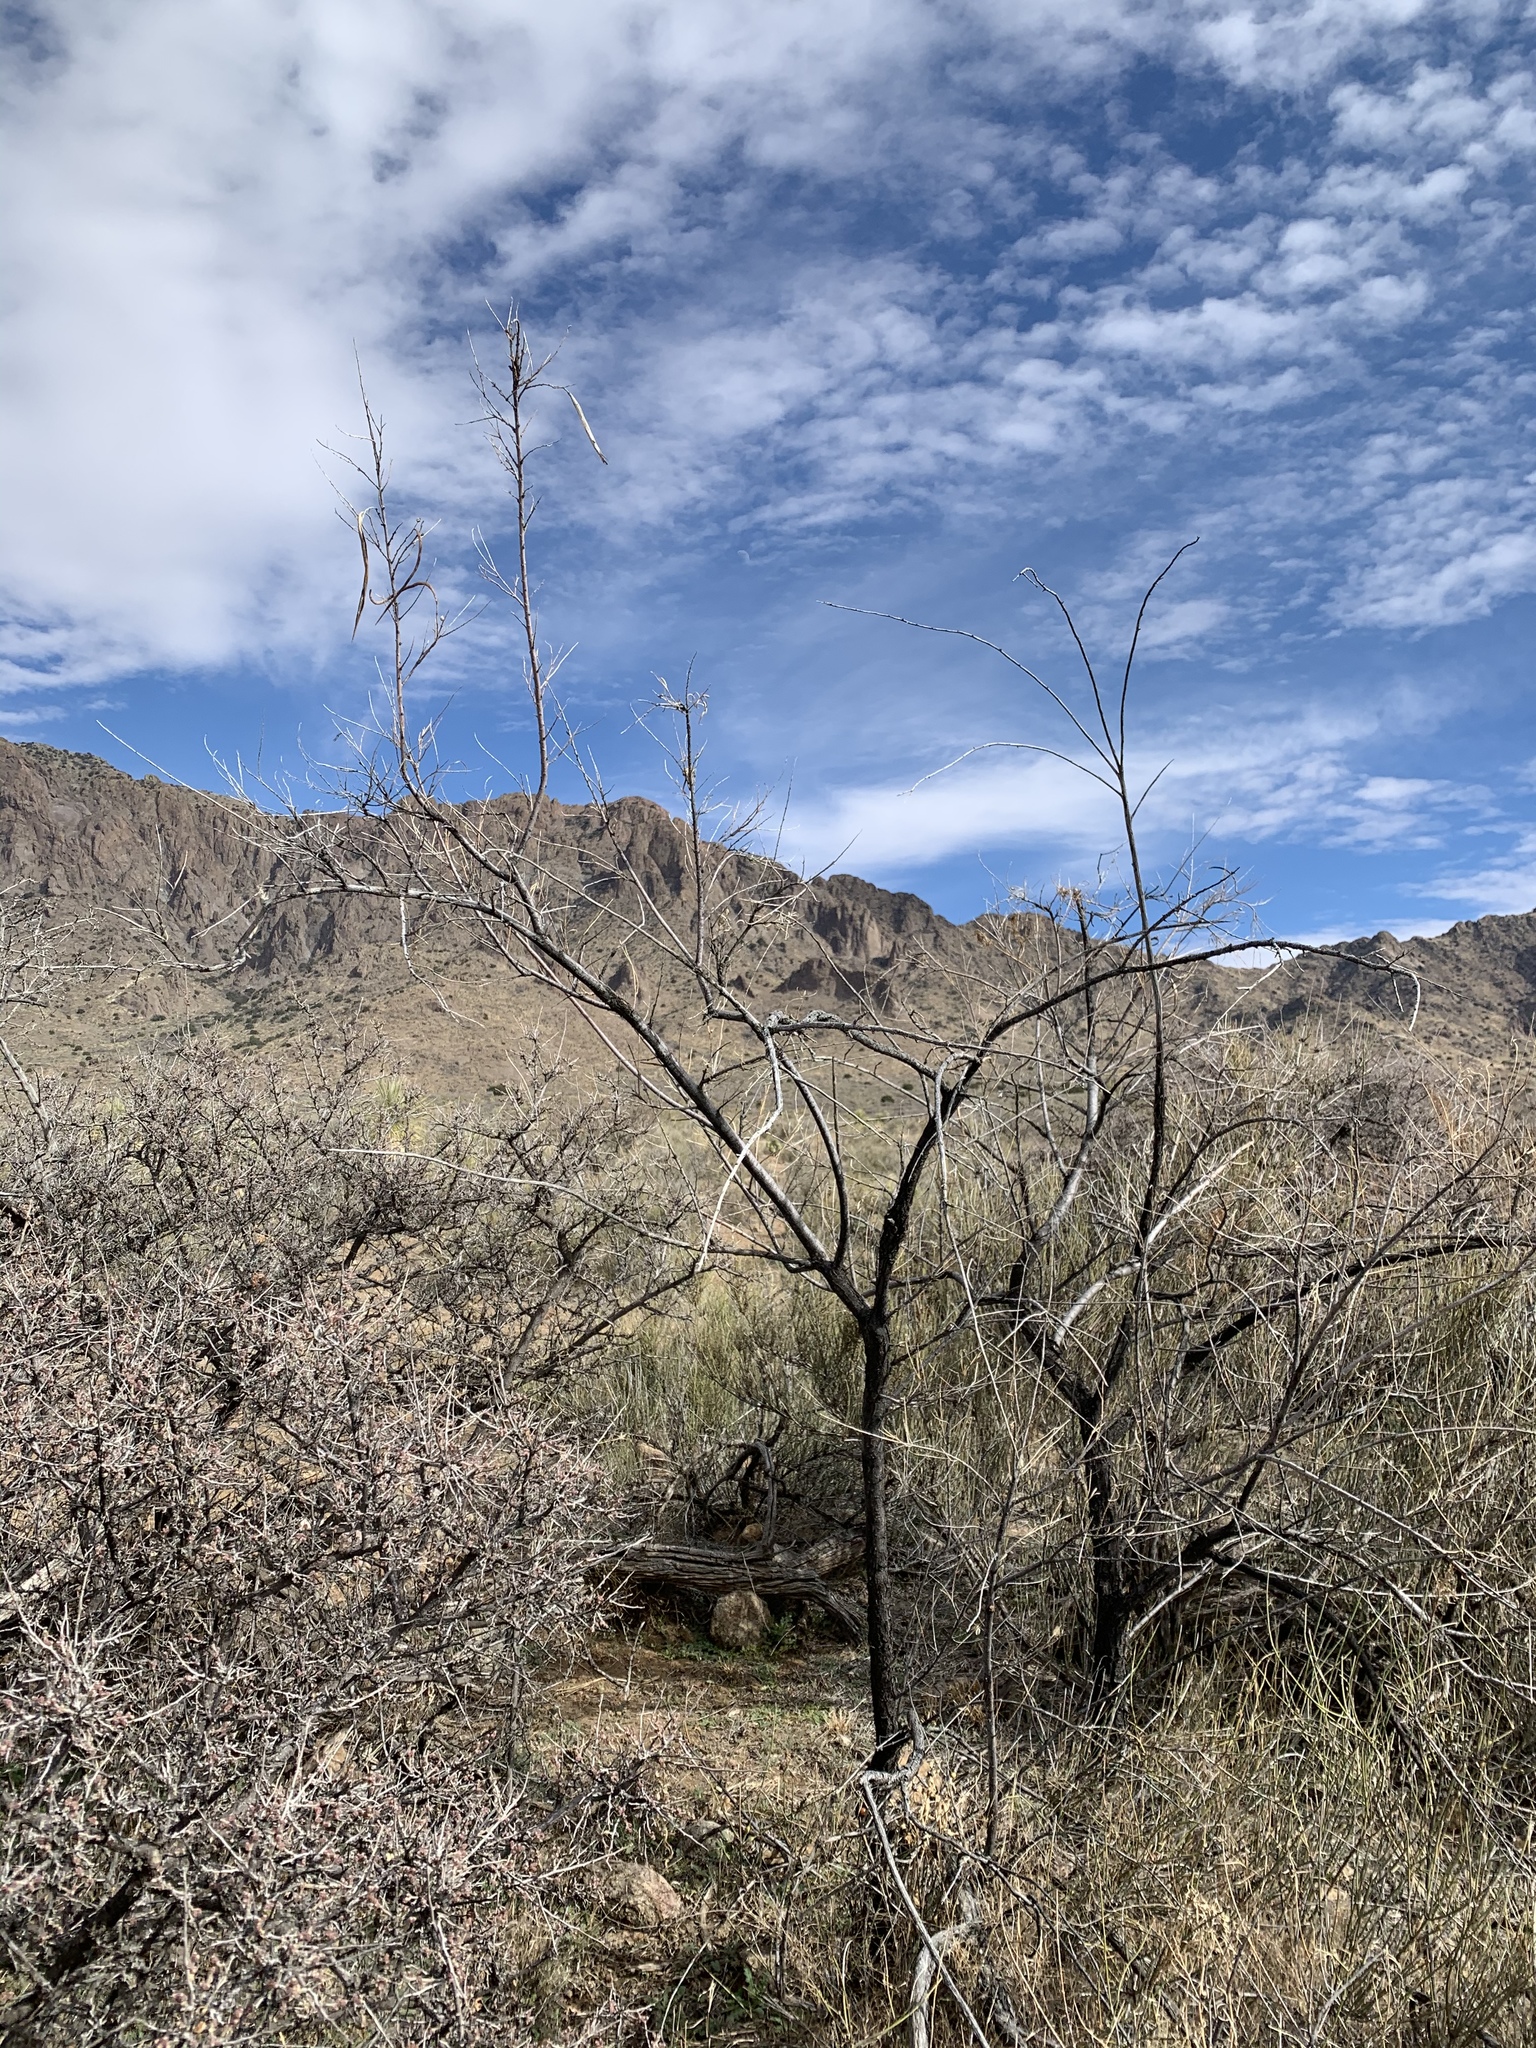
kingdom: Plantae
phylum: Tracheophyta
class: Magnoliopsida
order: Lamiales
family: Bignoniaceae
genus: Chilopsis
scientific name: Chilopsis linearis
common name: Desert-willow
